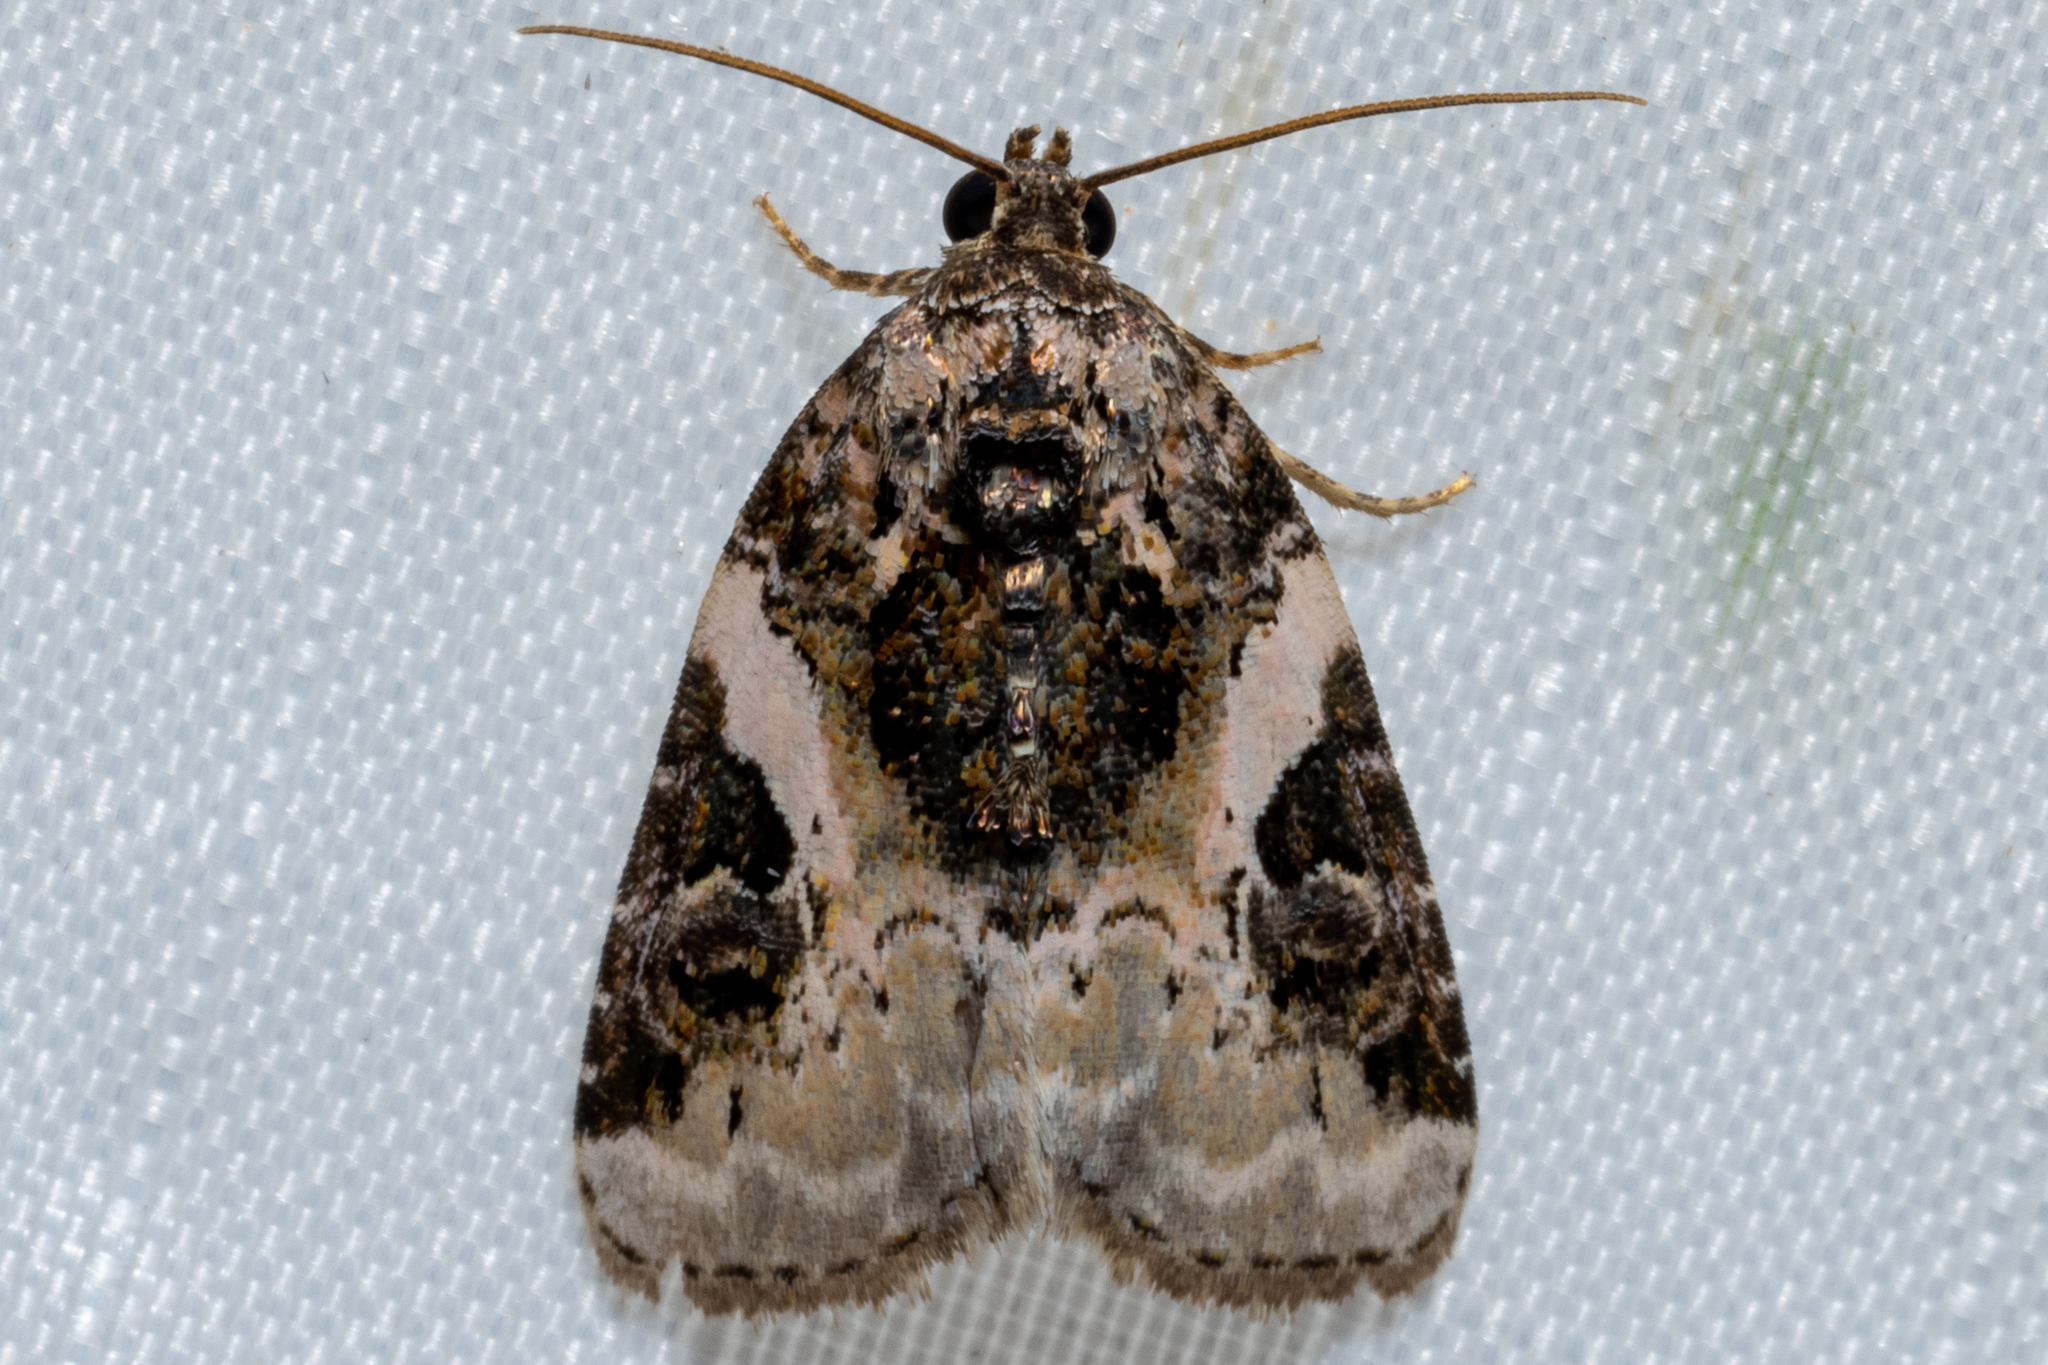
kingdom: Animalia
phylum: Arthropoda
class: Insecta
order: Lepidoptera
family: Noctuidae
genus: Pseudeustrotia
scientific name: Pseudeustrotia carneola
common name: Pink-barred lithacodia moth
